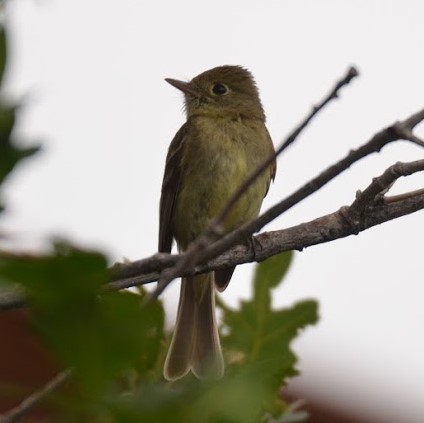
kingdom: Animalia
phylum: Chordata
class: Aves
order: Passeriformes
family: Tyrannidae
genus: Empidonax
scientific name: Empidonax difficilis
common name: Pacific-slope flycatcher
